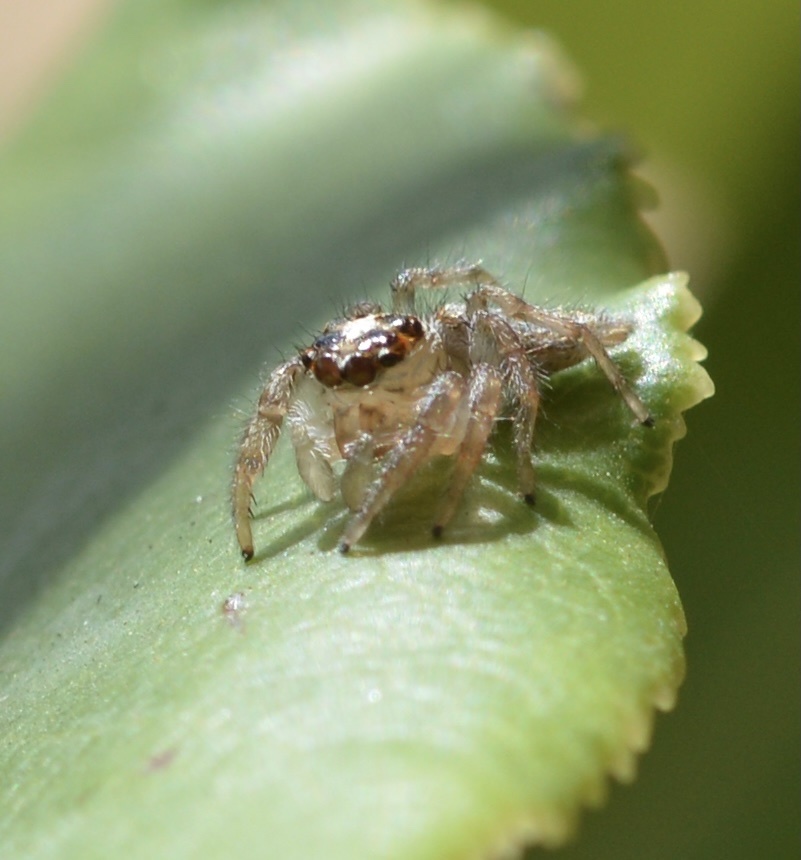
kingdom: Animalia
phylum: Arthropoda
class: Arachnida
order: Araneae
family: Salticidae
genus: Colonus
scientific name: Colonus hesperus
